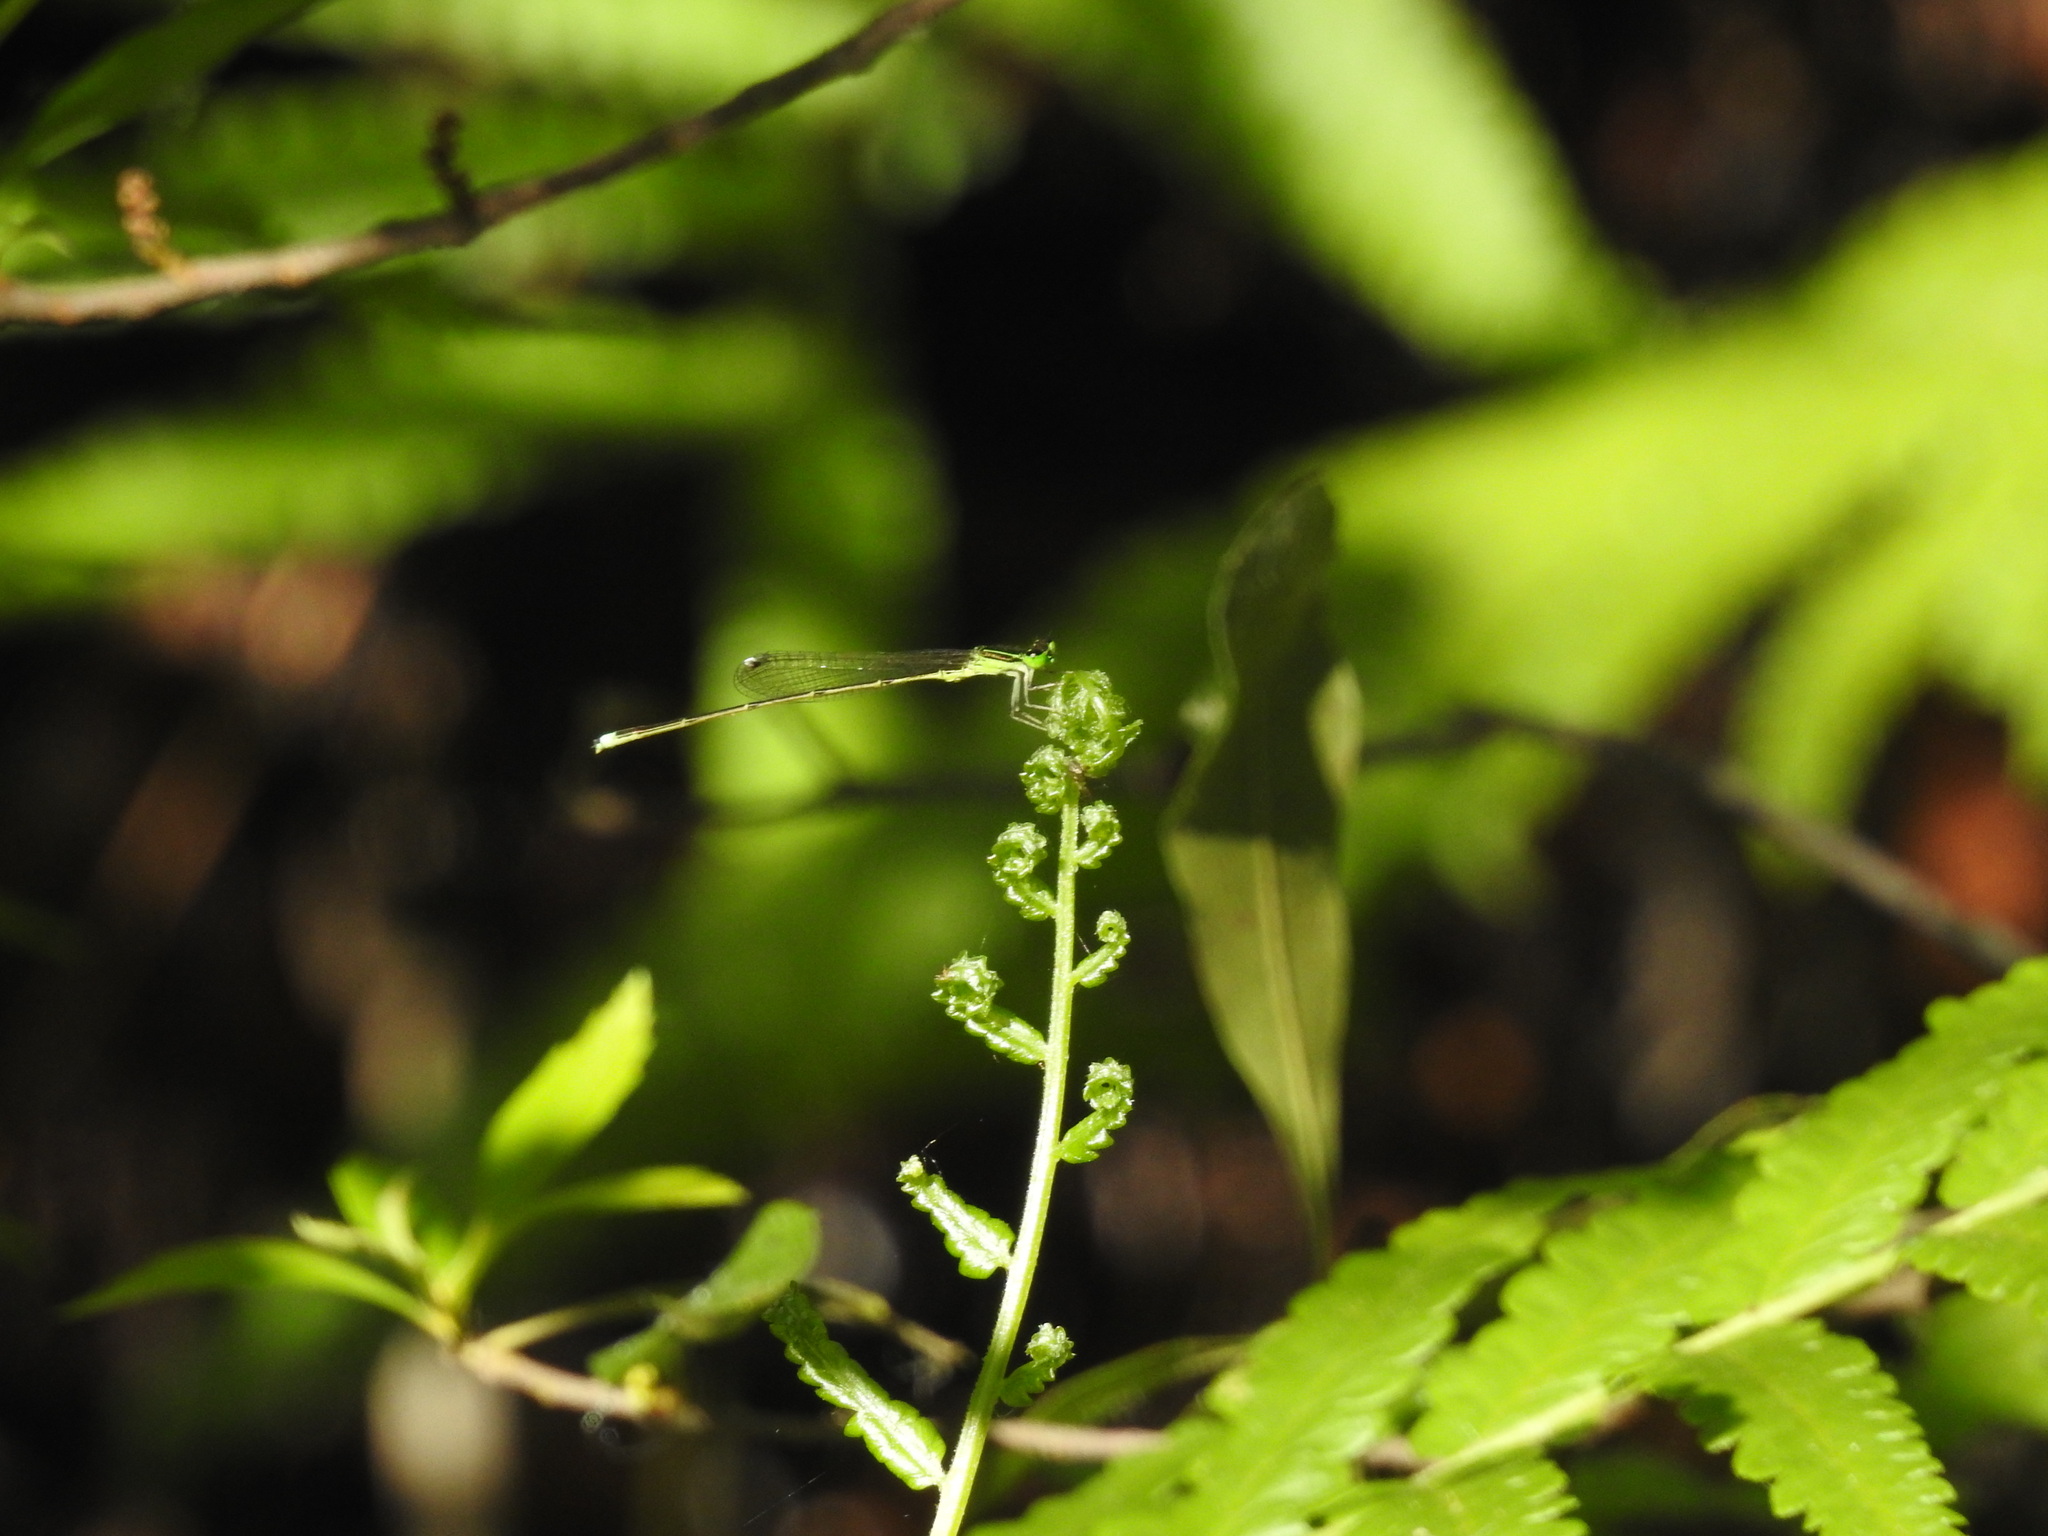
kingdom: Animalia
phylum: Arthropoda
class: Insecta
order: Odonata
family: Coenagrionidae
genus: Ischnura
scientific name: Ischnura prognata
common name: Furtive forktail
